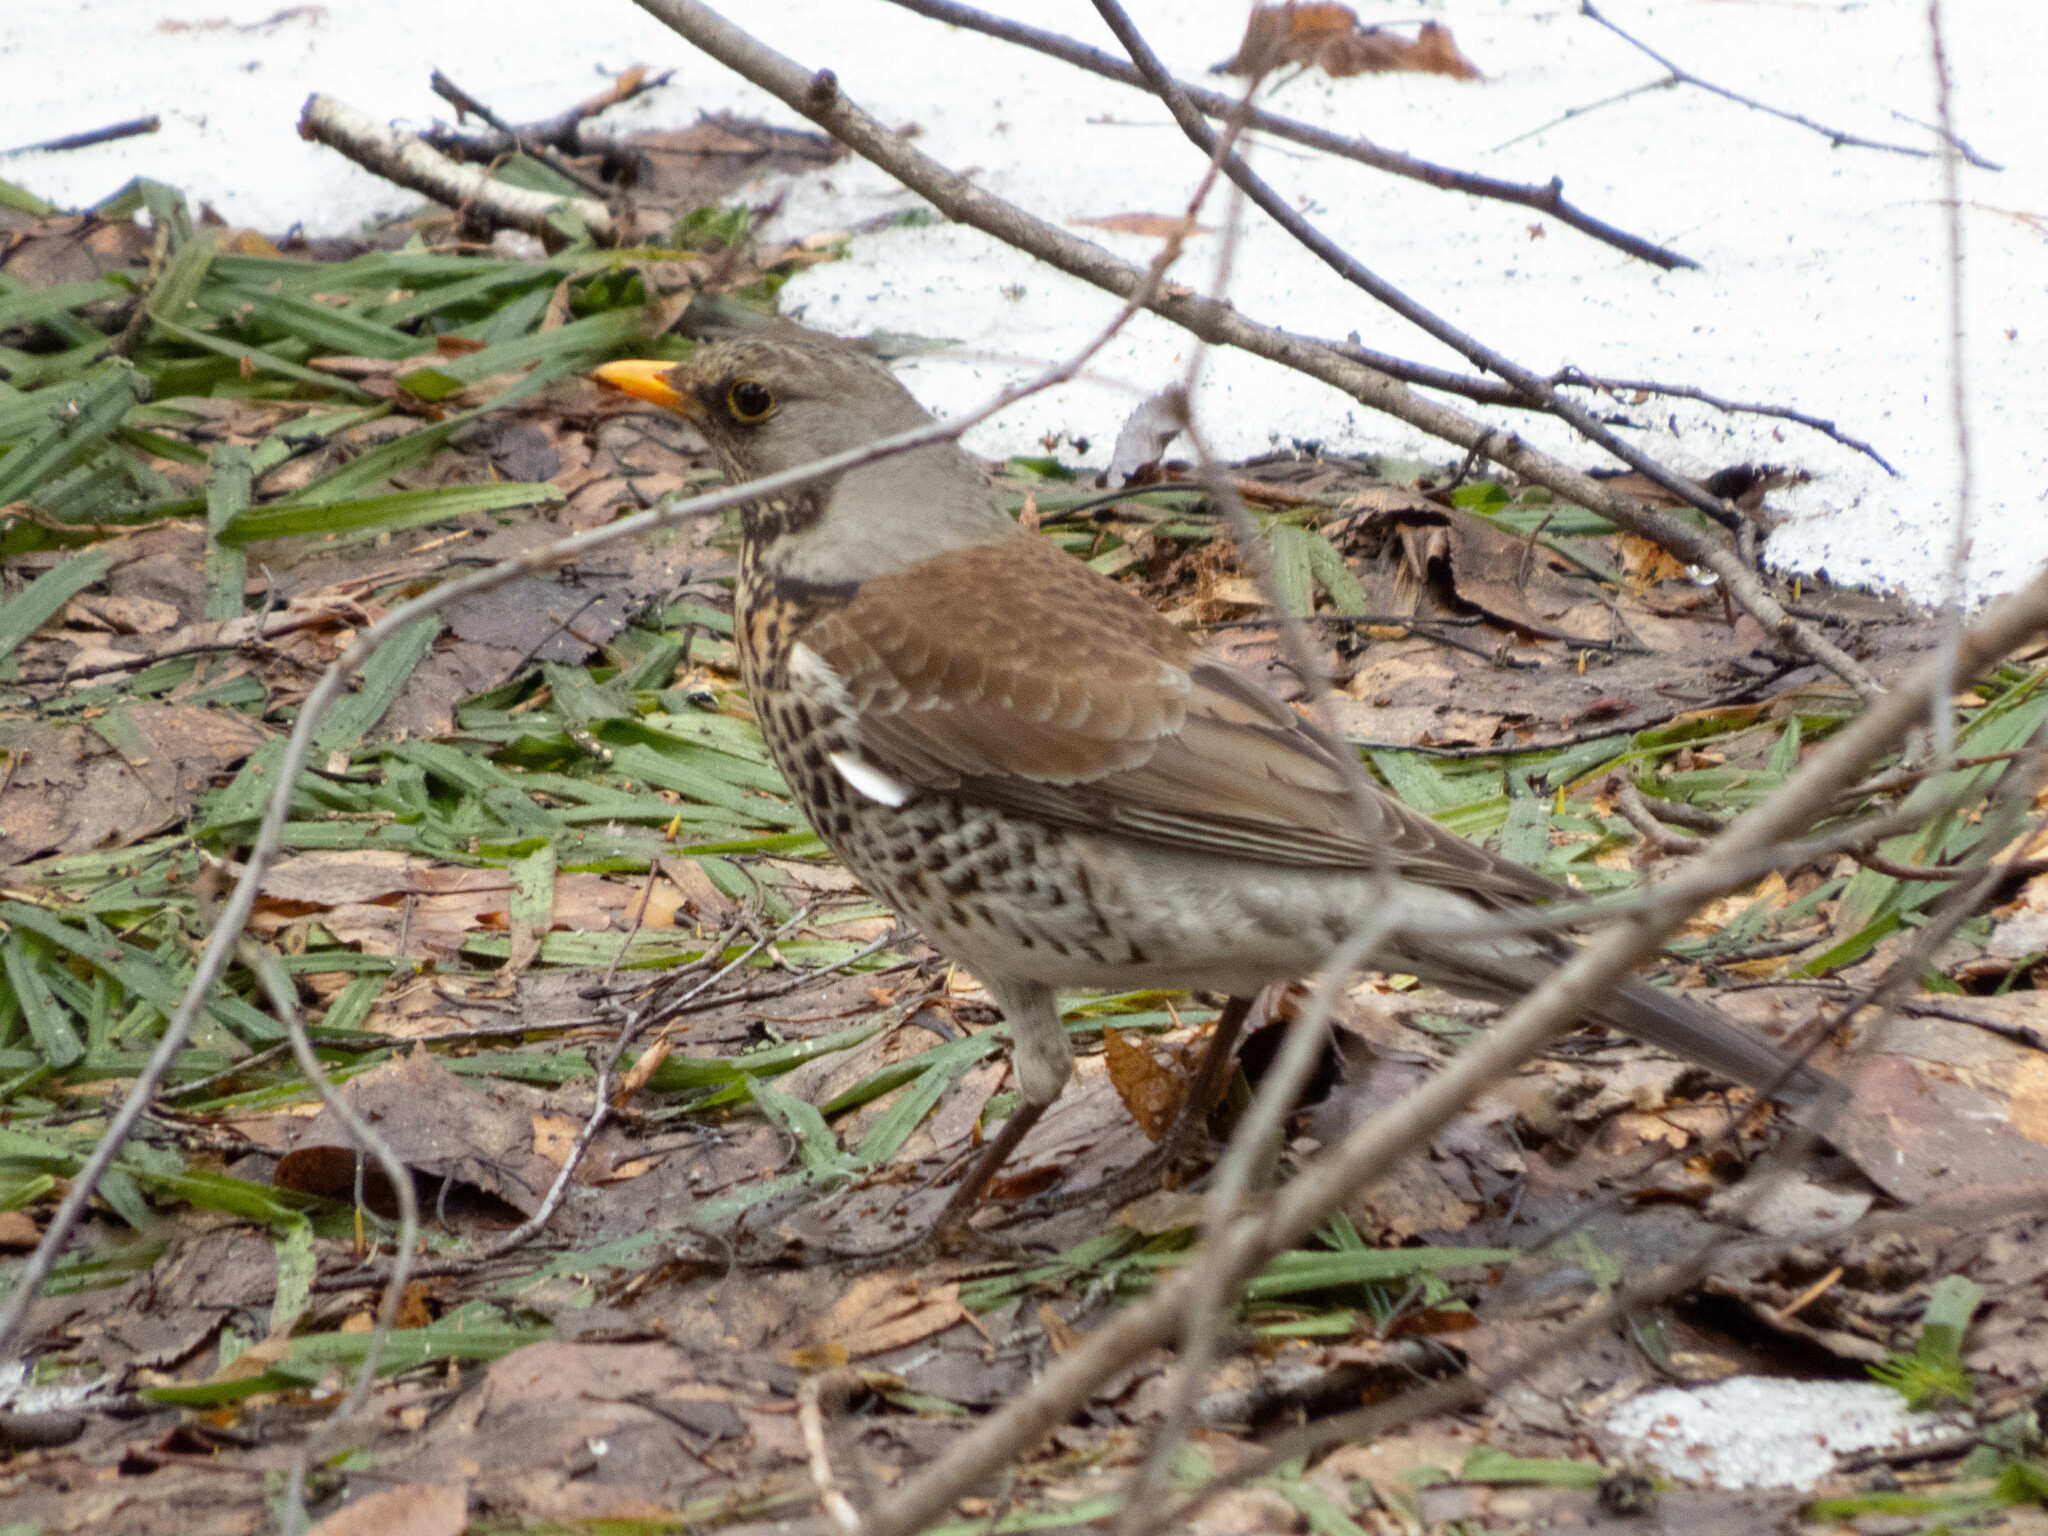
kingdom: Animalia
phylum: Chordata
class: Aves
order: Passeriformes
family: Turdidae
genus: Turdus
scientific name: Turdus pilaris
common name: Fieldfare
